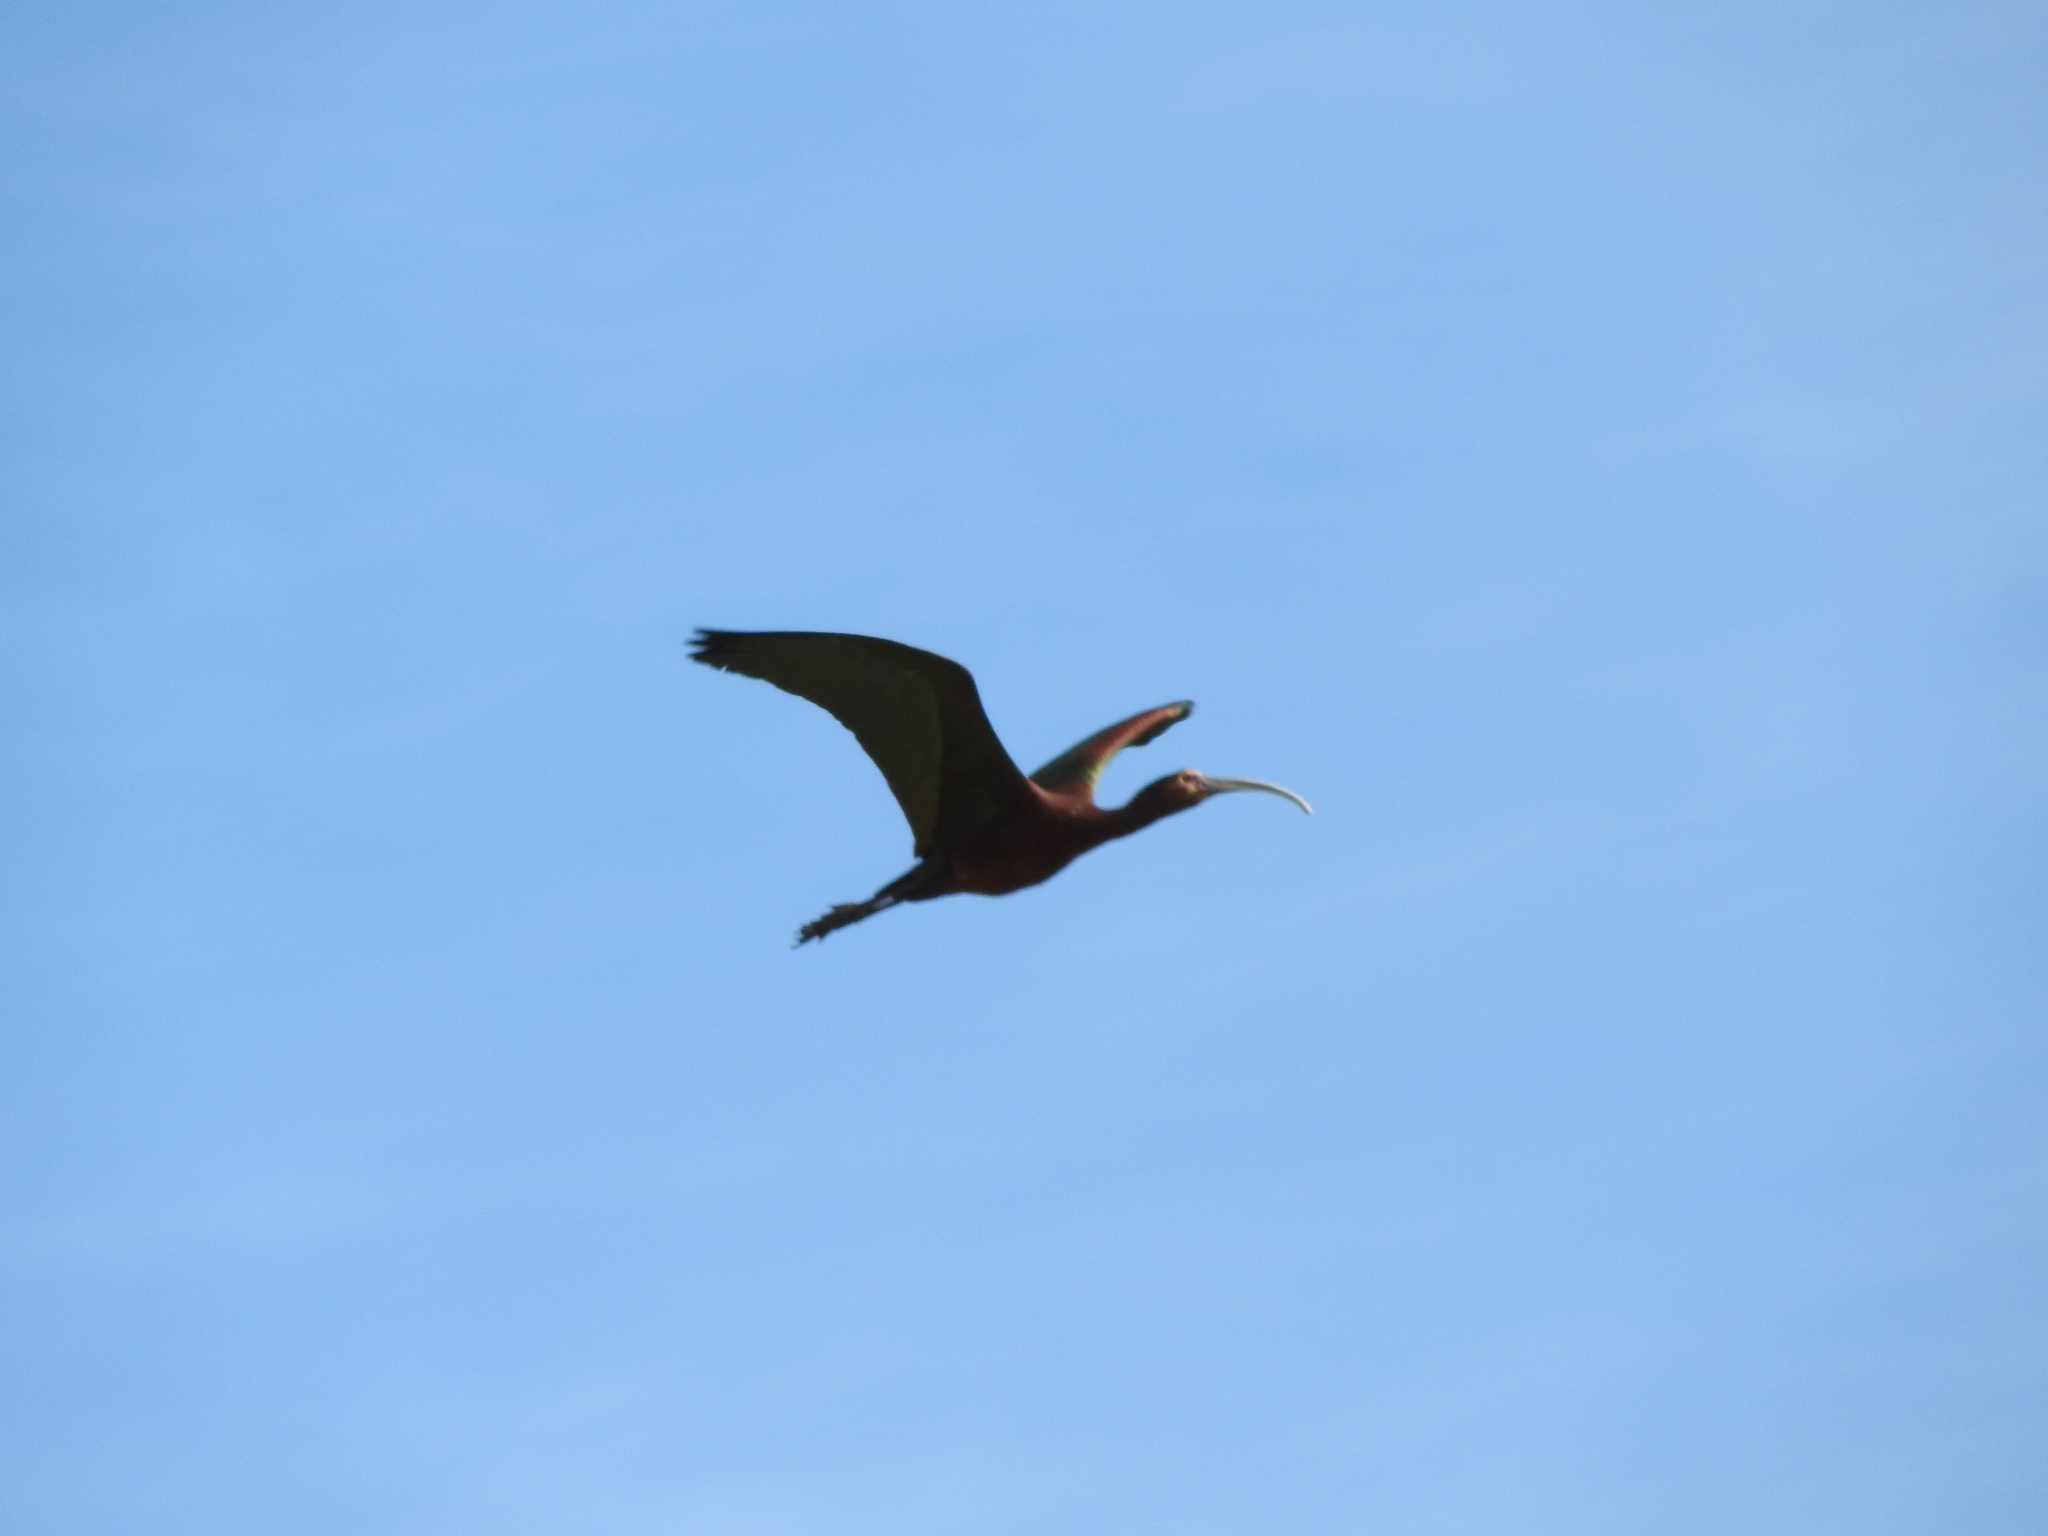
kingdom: Animalia
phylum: Chordata
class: Aves
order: Pelecaniformes
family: Threskiornithidae
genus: Plegadis
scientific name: Plegadis chihi
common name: White-faced ibis
